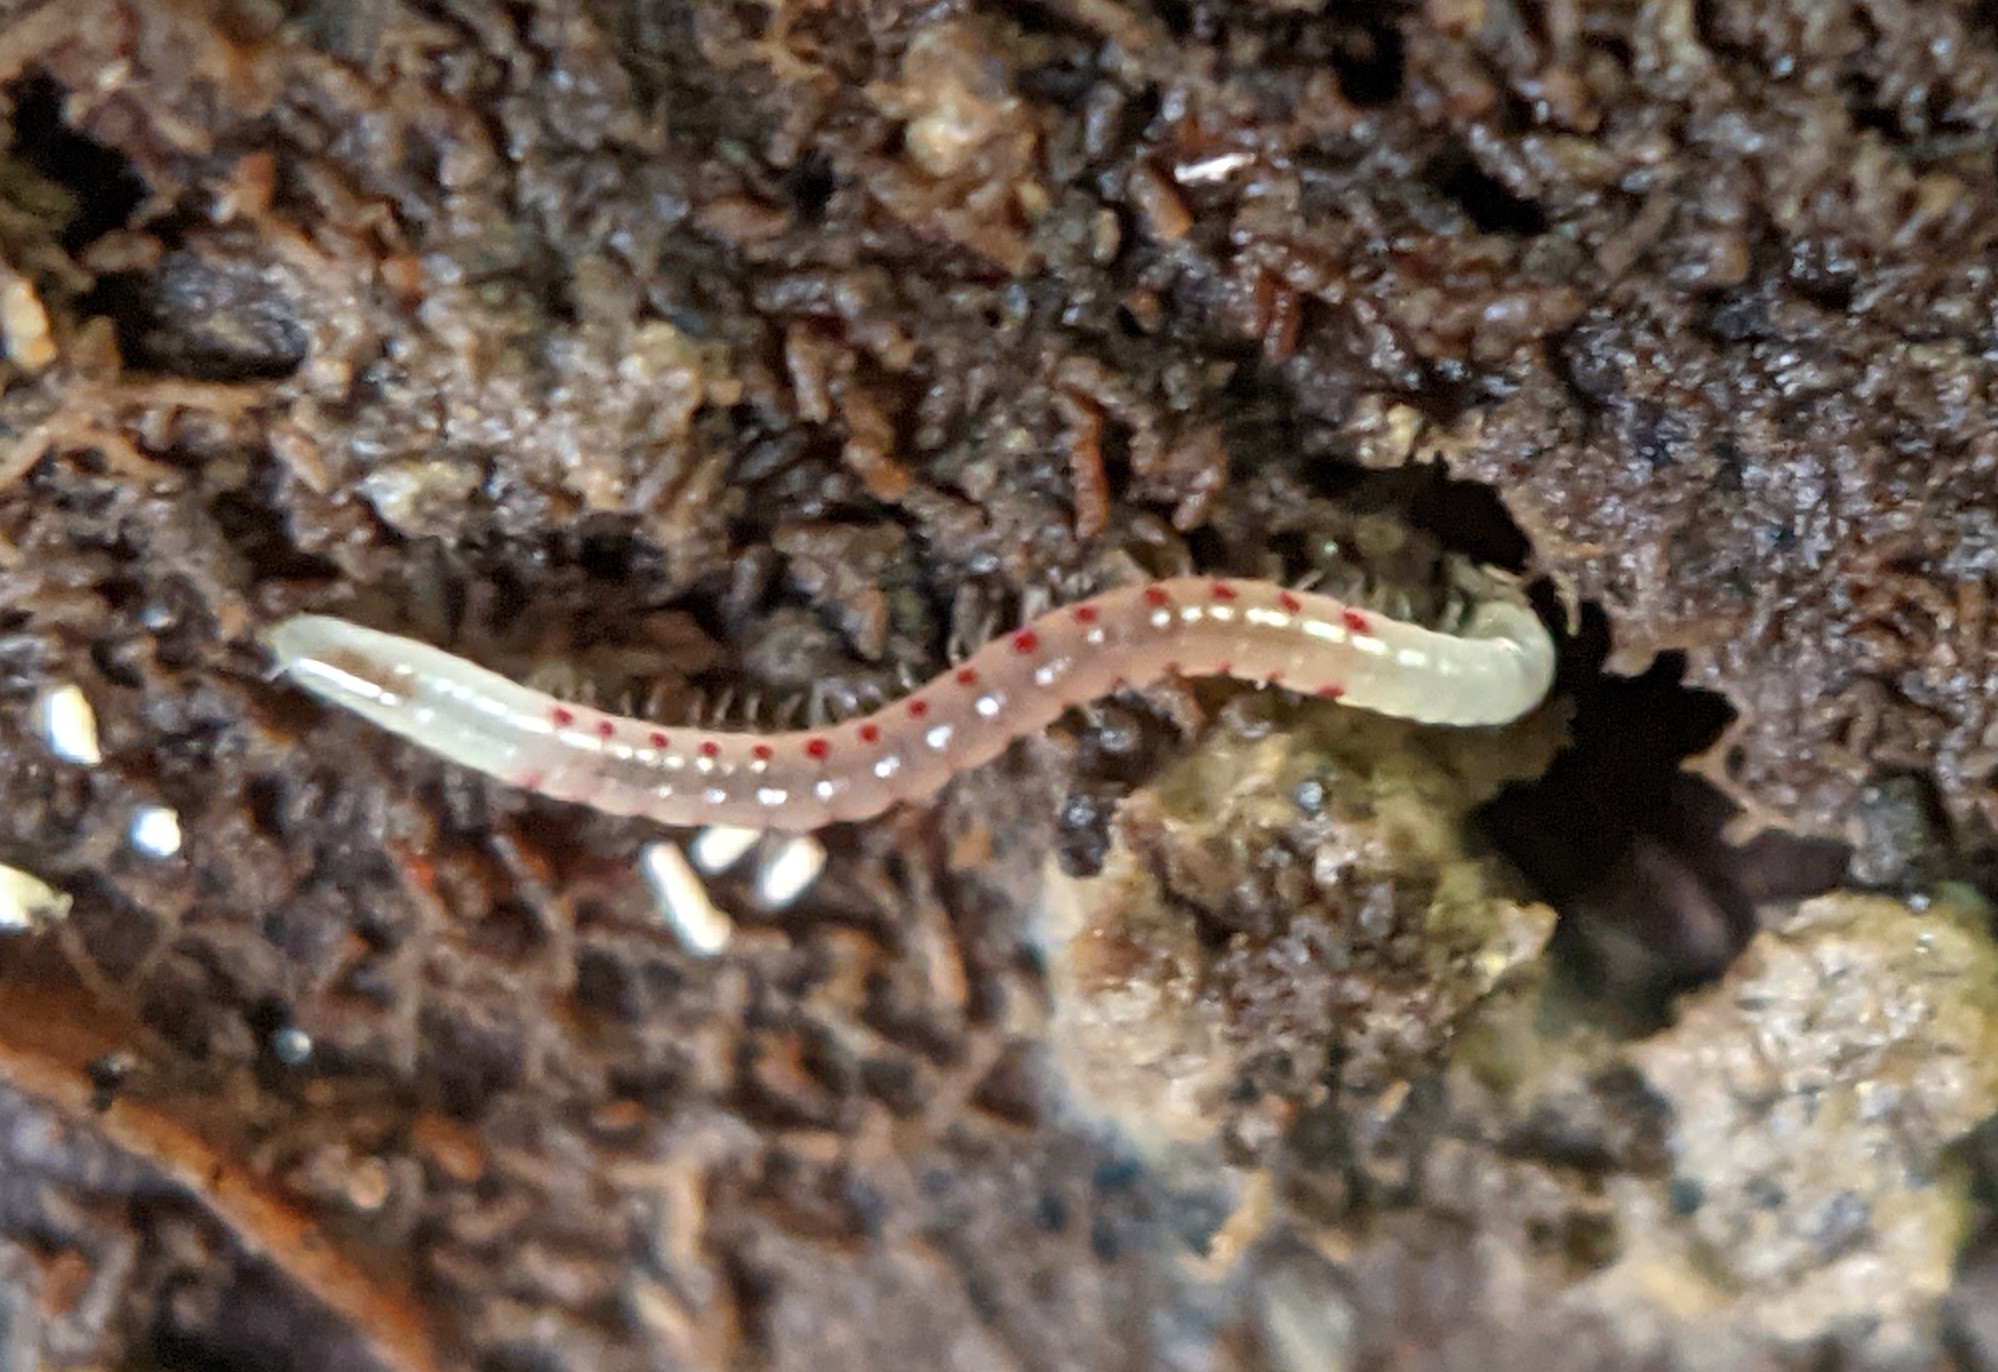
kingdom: Animalia
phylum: Arthropoda
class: Diplopoda
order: Julida
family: Blaniulidae
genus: Blaniulus
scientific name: Blaniulus guttulatus
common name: Spotted snake millipede
